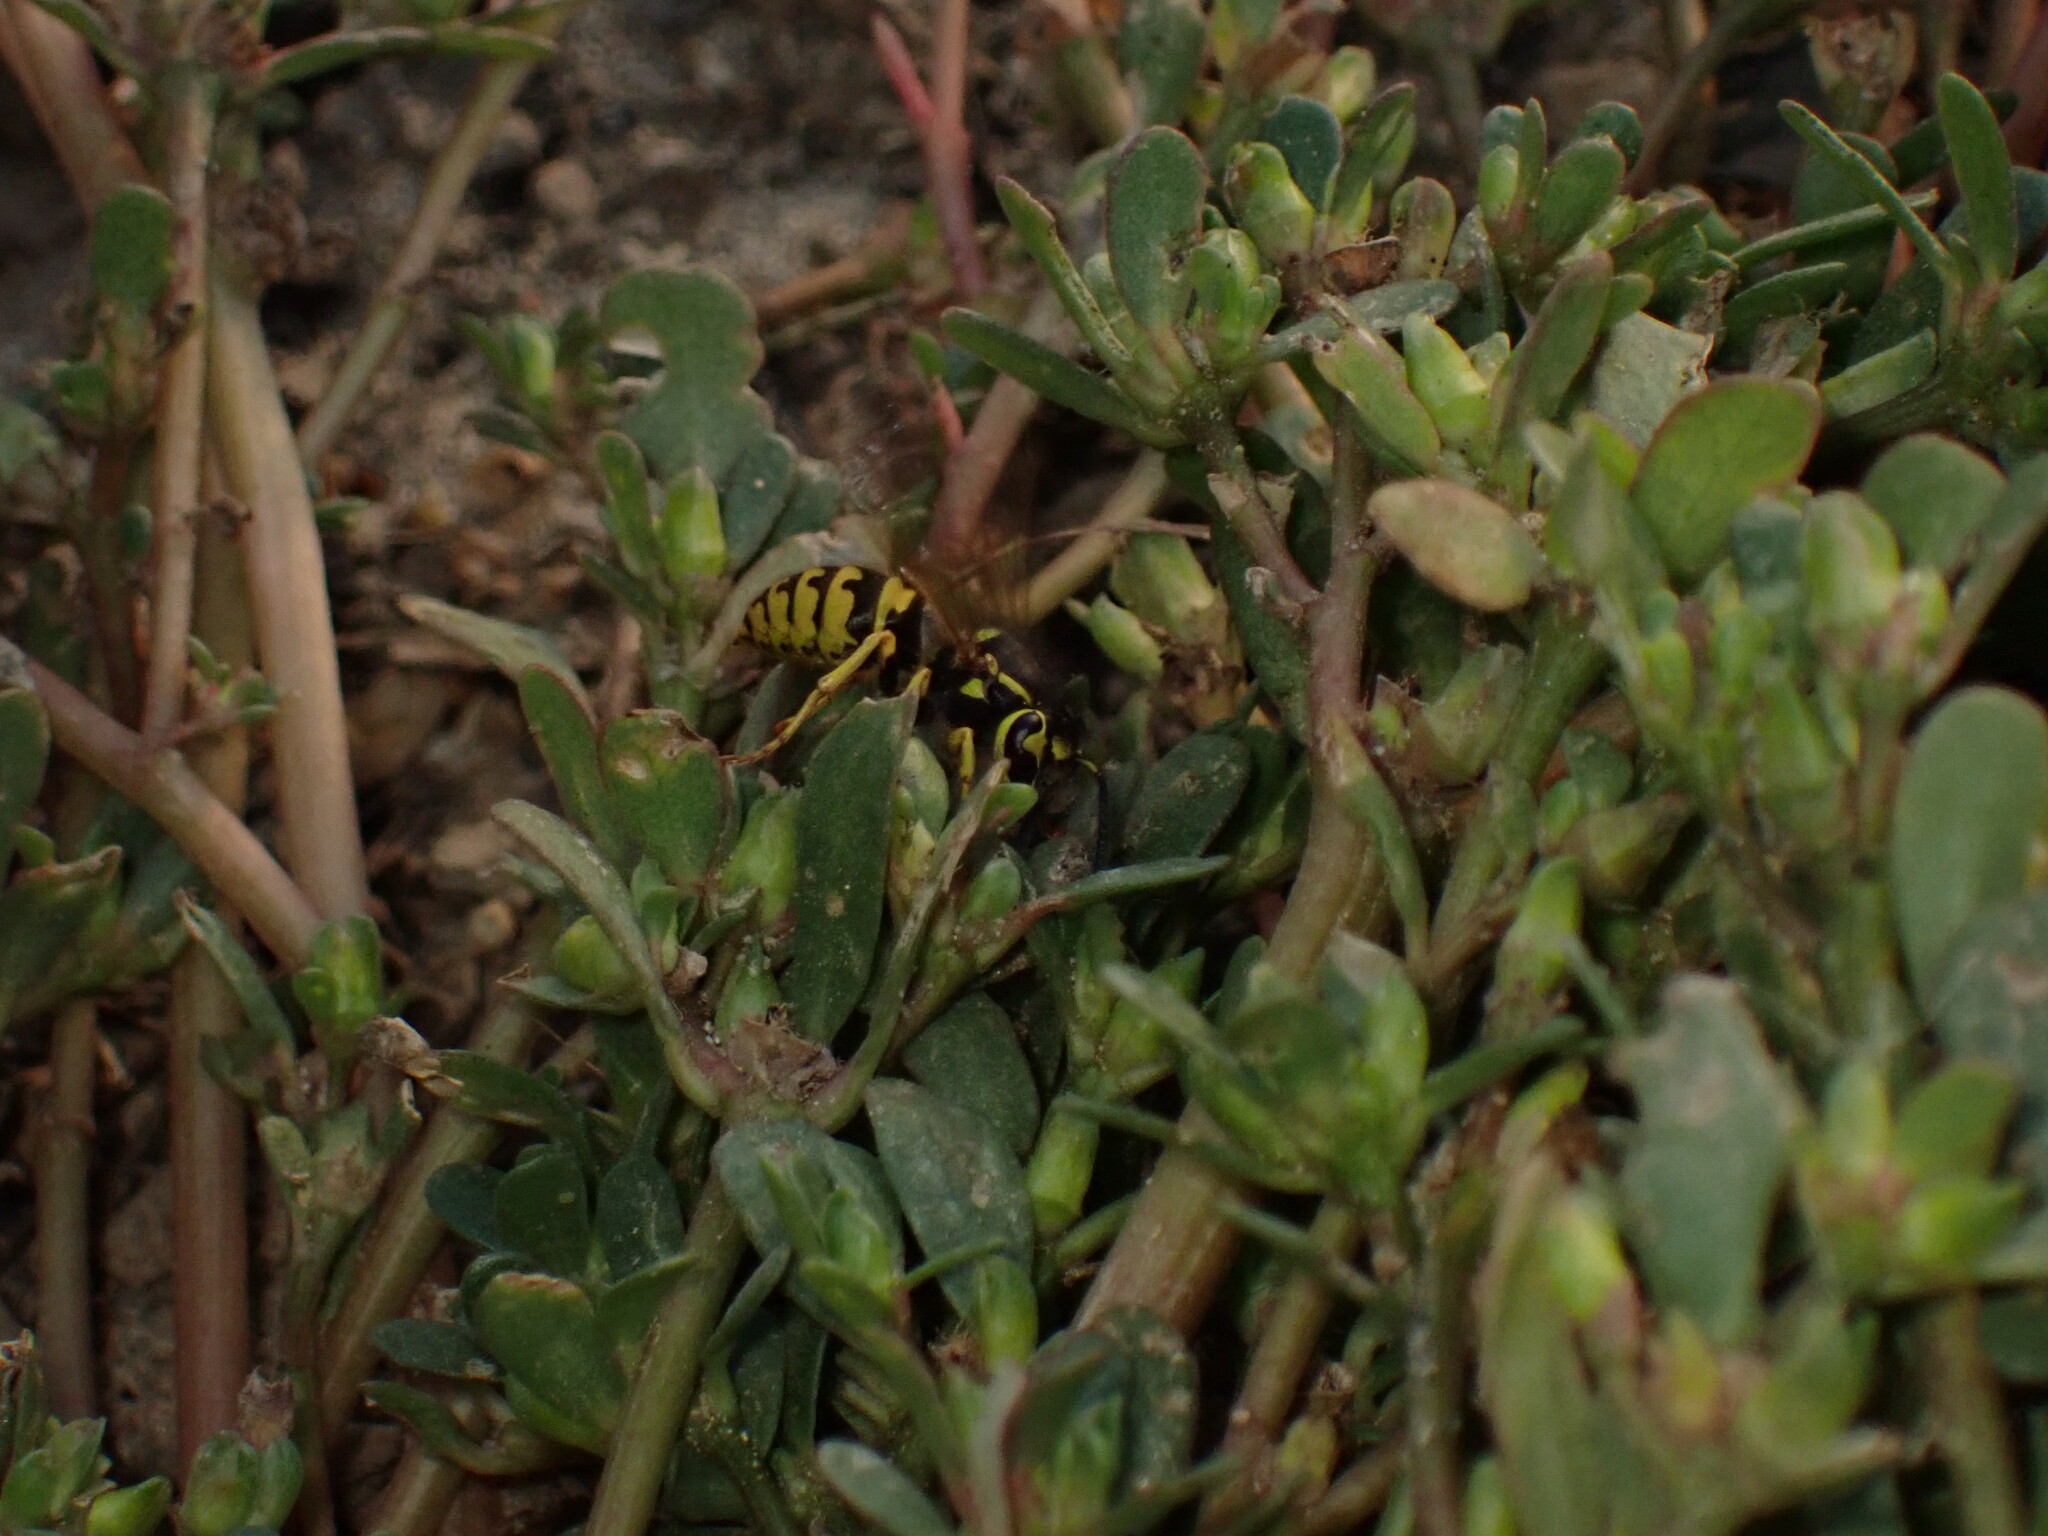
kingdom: Animalia
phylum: Arthropoda
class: Insecta
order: Hymenoptera
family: Vespidae
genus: Vespula
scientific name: Vespula pensylvanica
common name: Western yellowjacket
